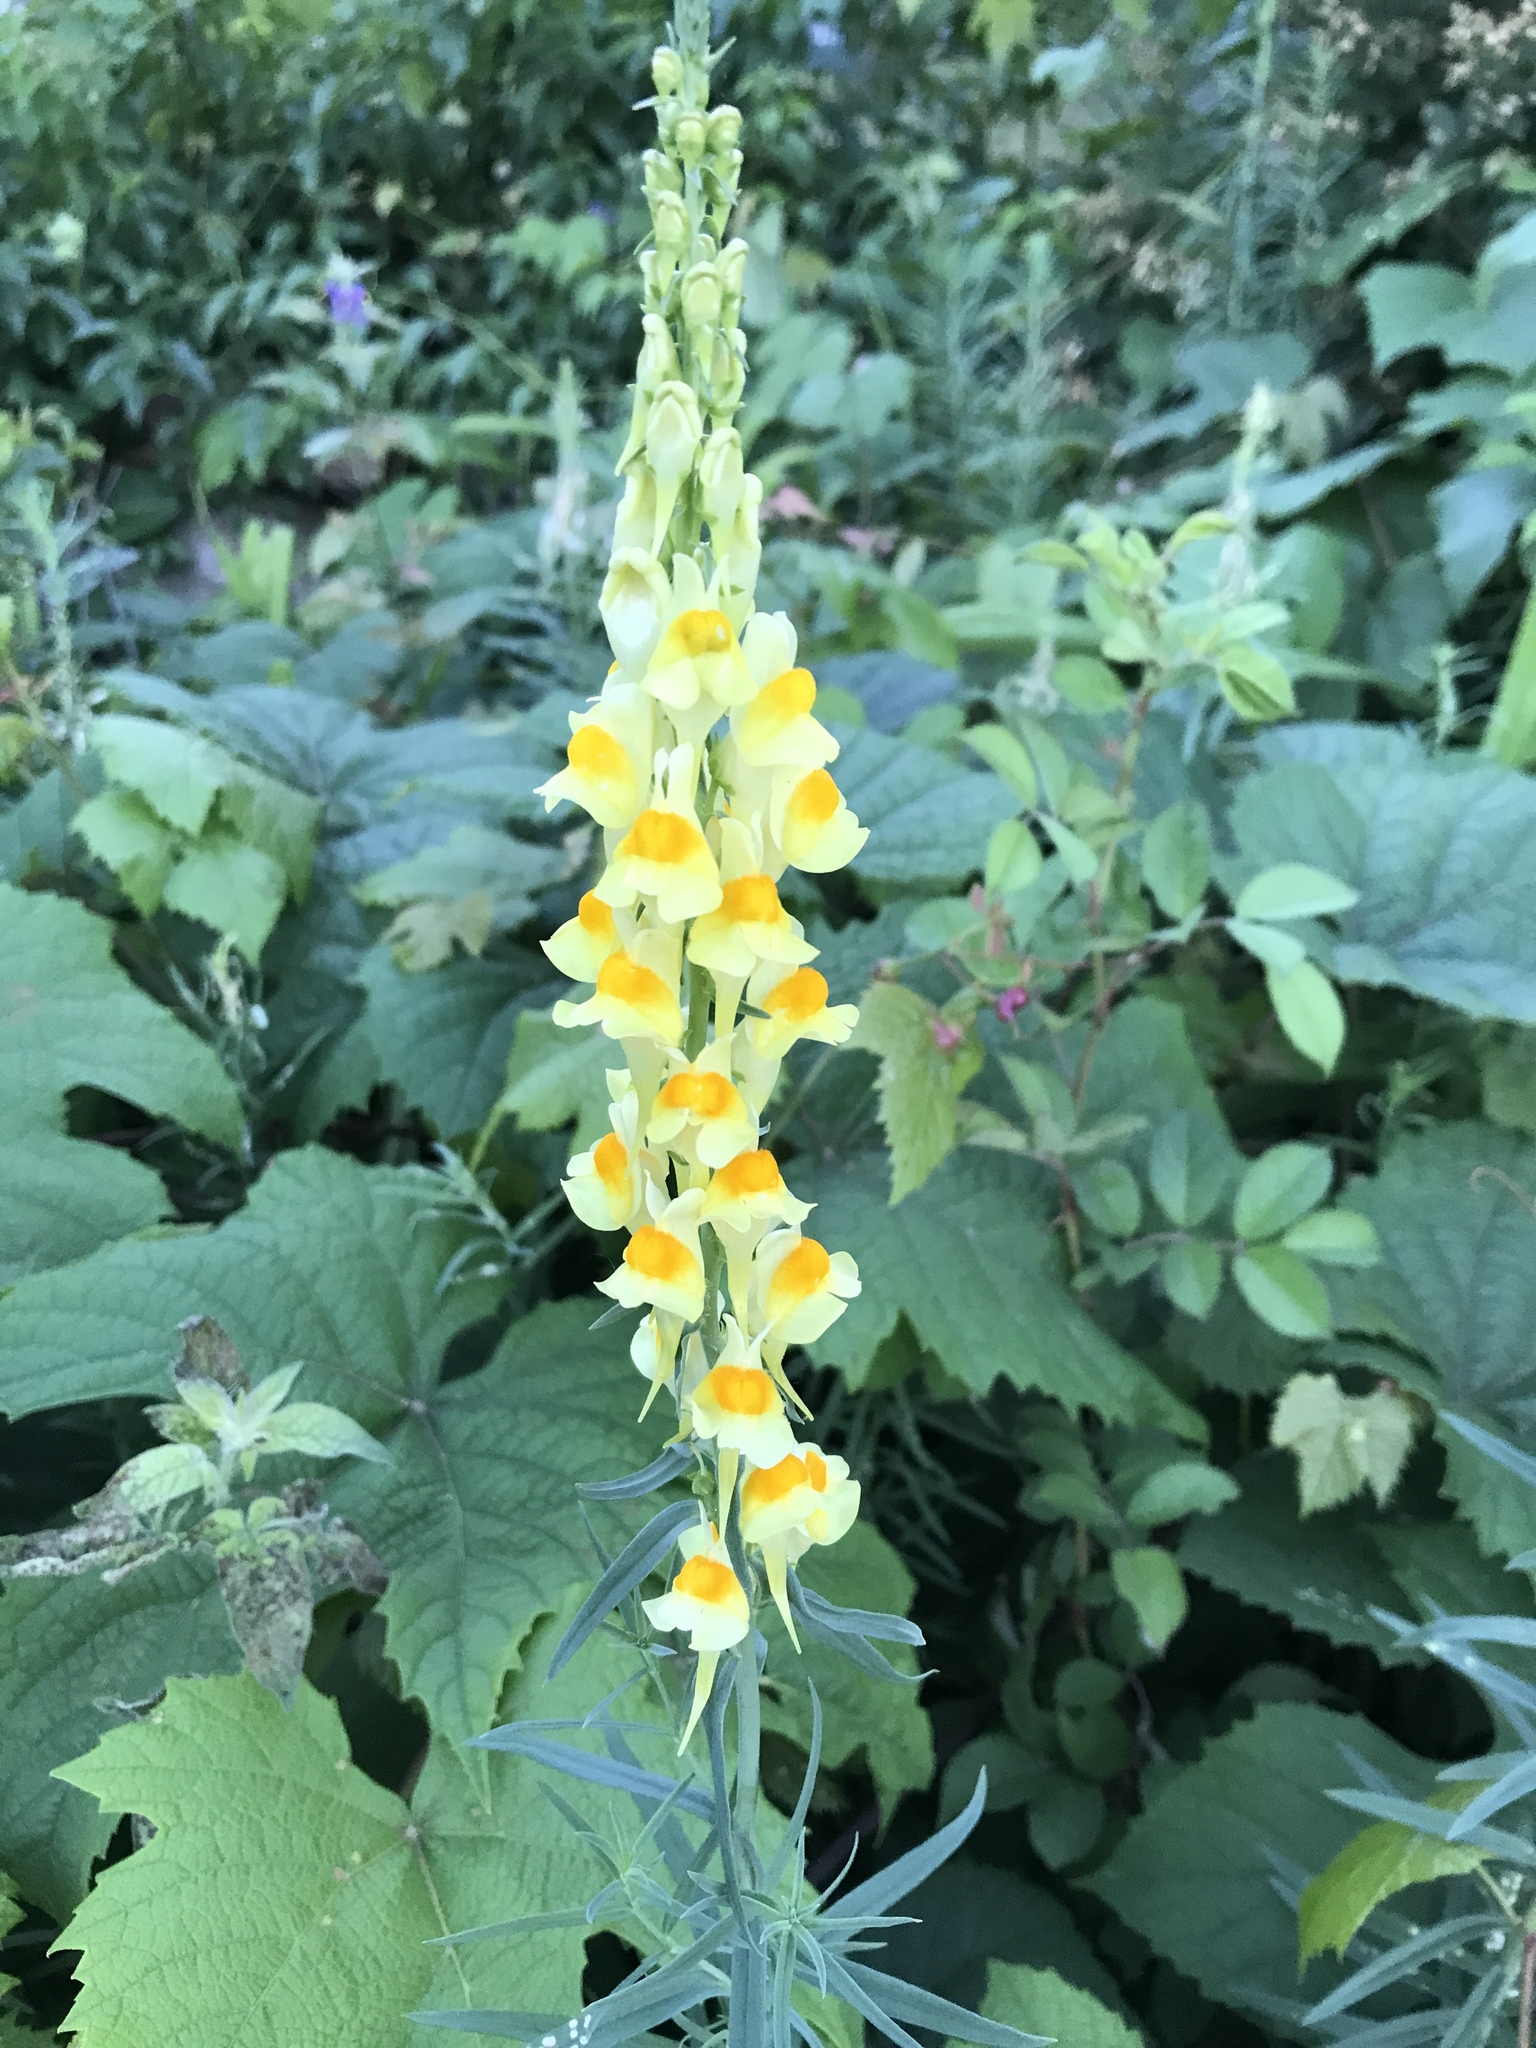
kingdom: Plantae
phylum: Tracheophyta
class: Magnoliopsida
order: Lamiales
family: Plantaginaceae
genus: Linaria
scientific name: Linaria vulgaris
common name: Butter and eggs
